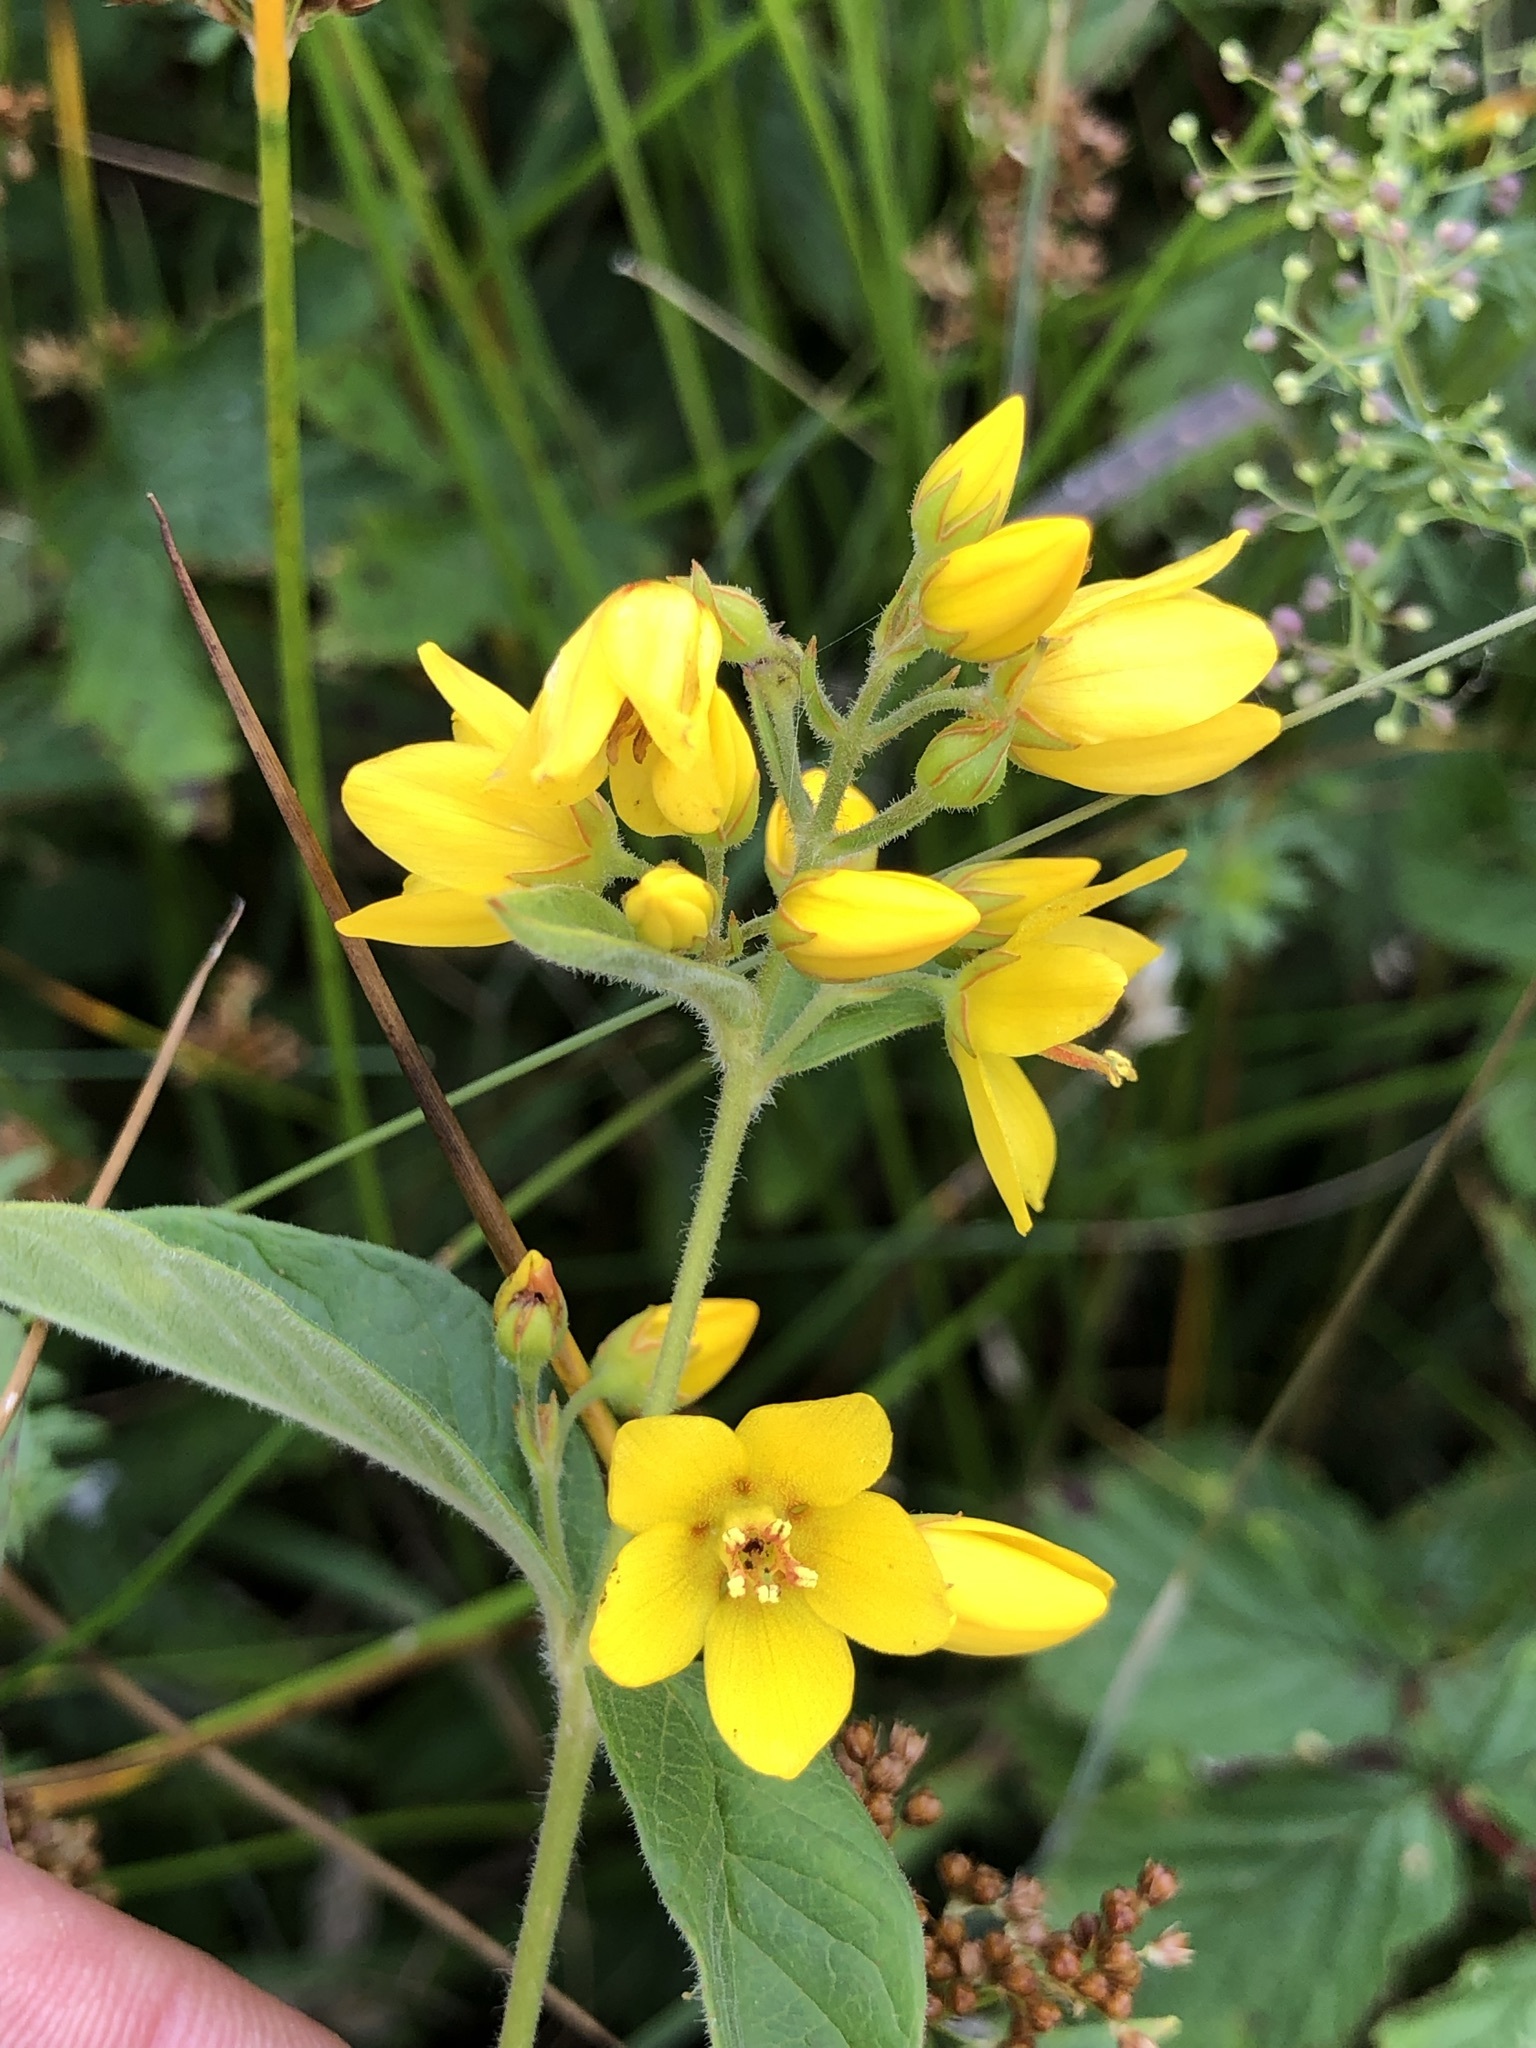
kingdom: Plantae
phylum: Tracheophyta
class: Magnoliopsida
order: Ericales
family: Primulaceae
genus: Lysimachia
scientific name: Lysimachia vulgaris
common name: Yellow loosestrife
